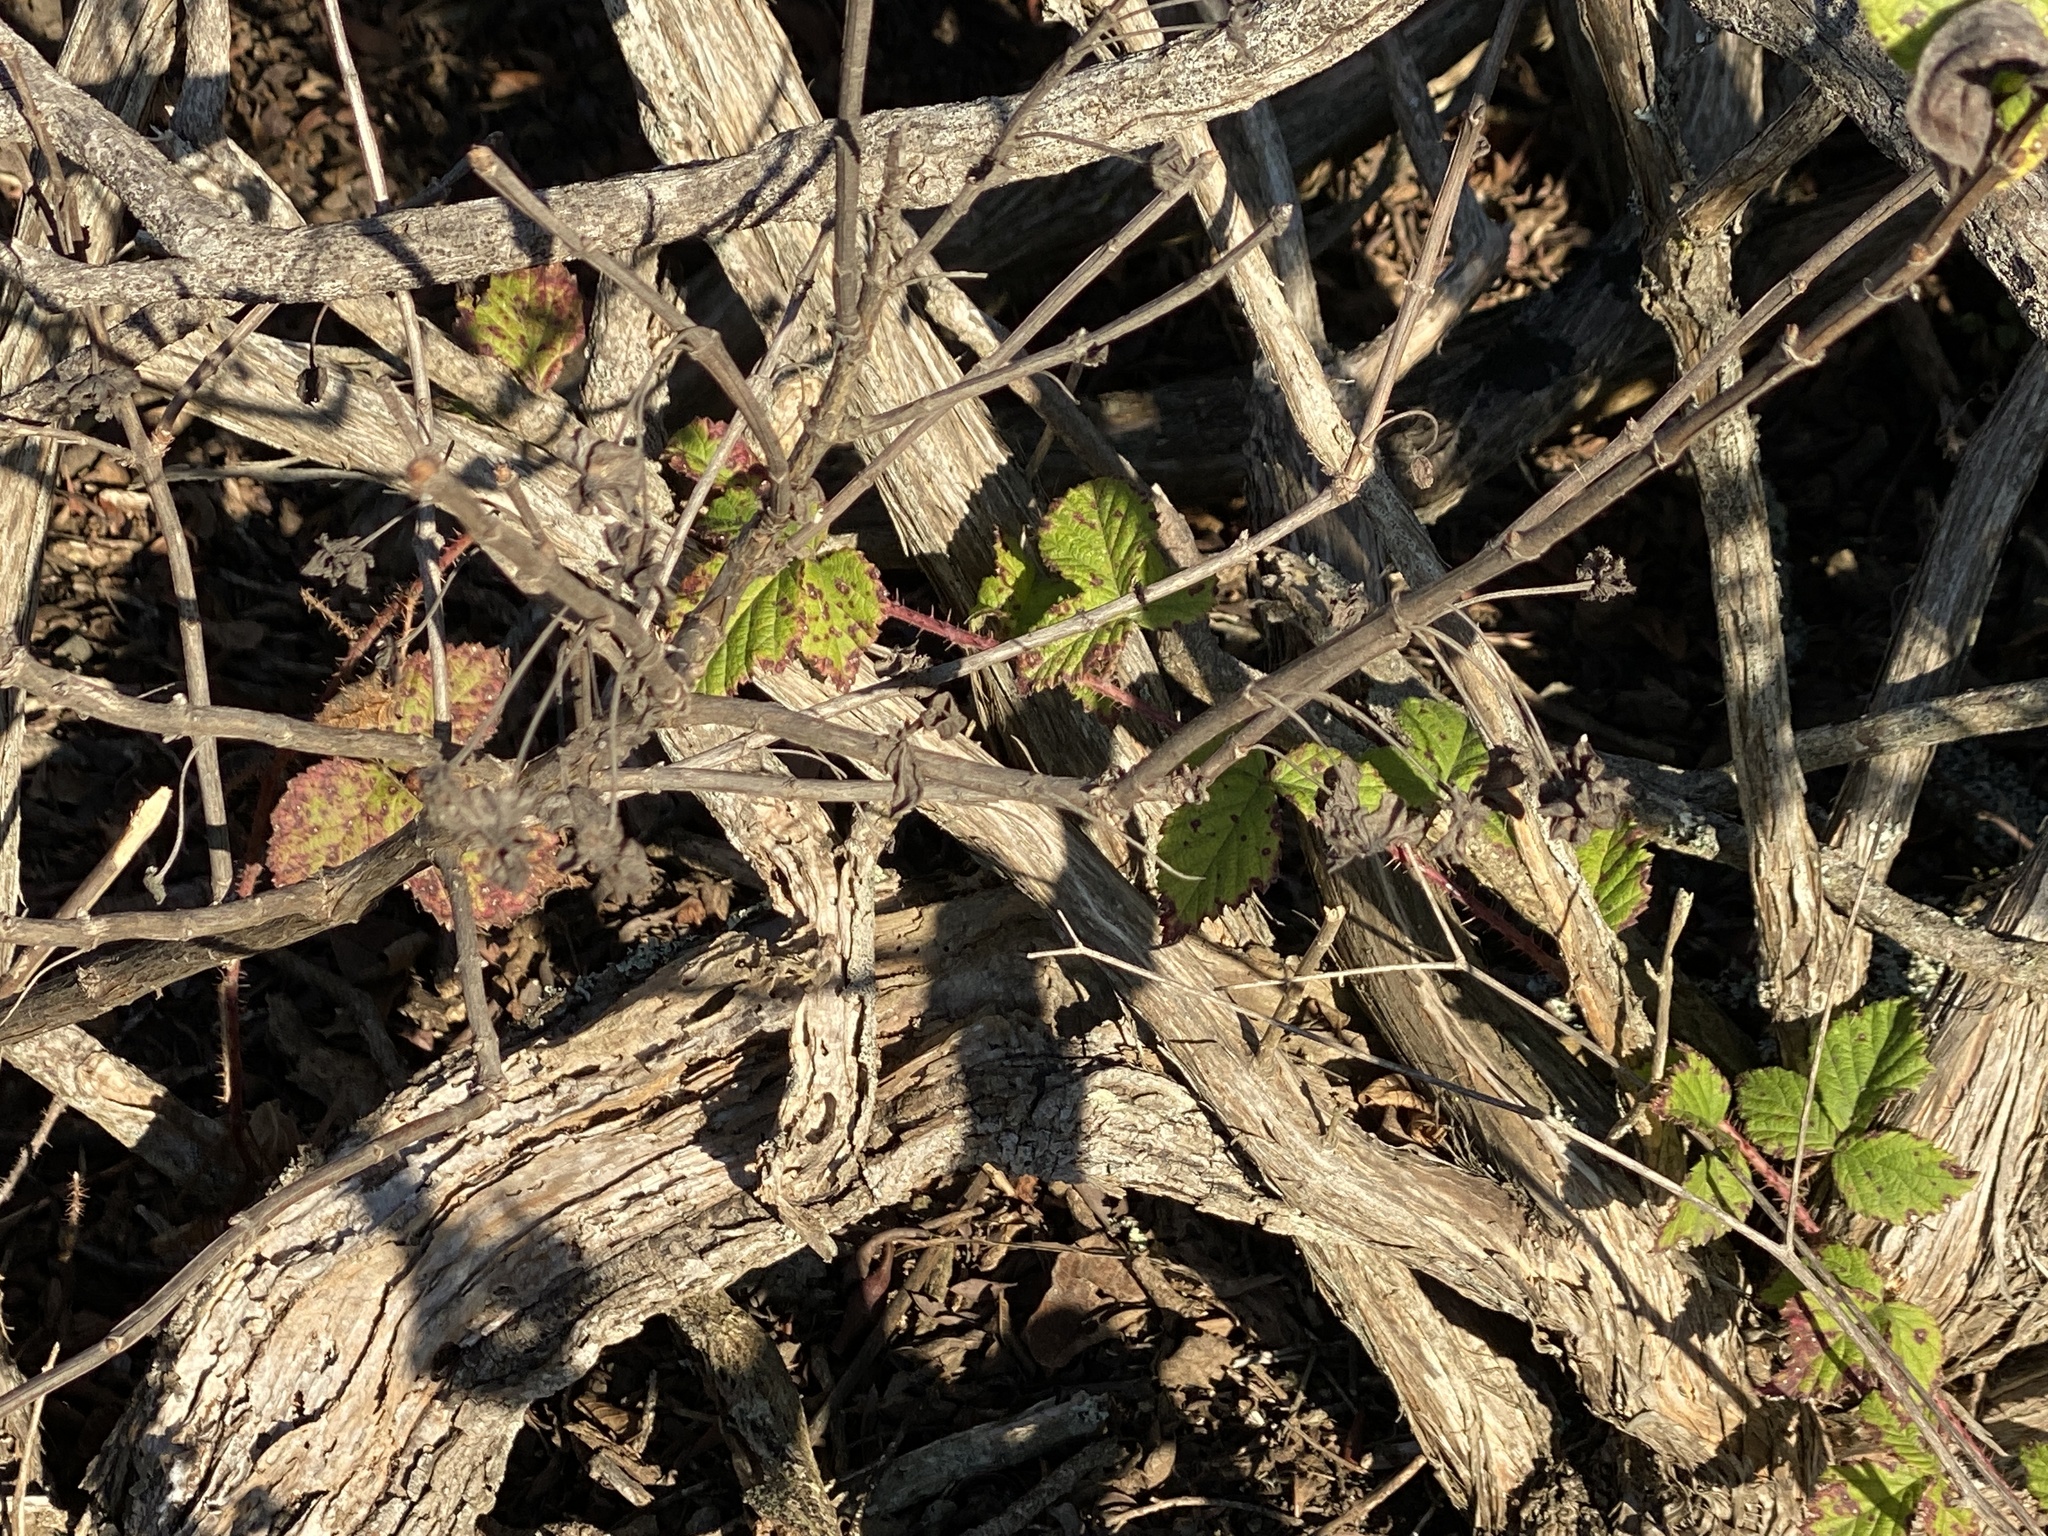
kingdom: Plantae
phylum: Tracheophyta
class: Magnoliopsida
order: Rosales
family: Rosaceae
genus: Rubus
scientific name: Rubus ursinus
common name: Pacific blackberry
